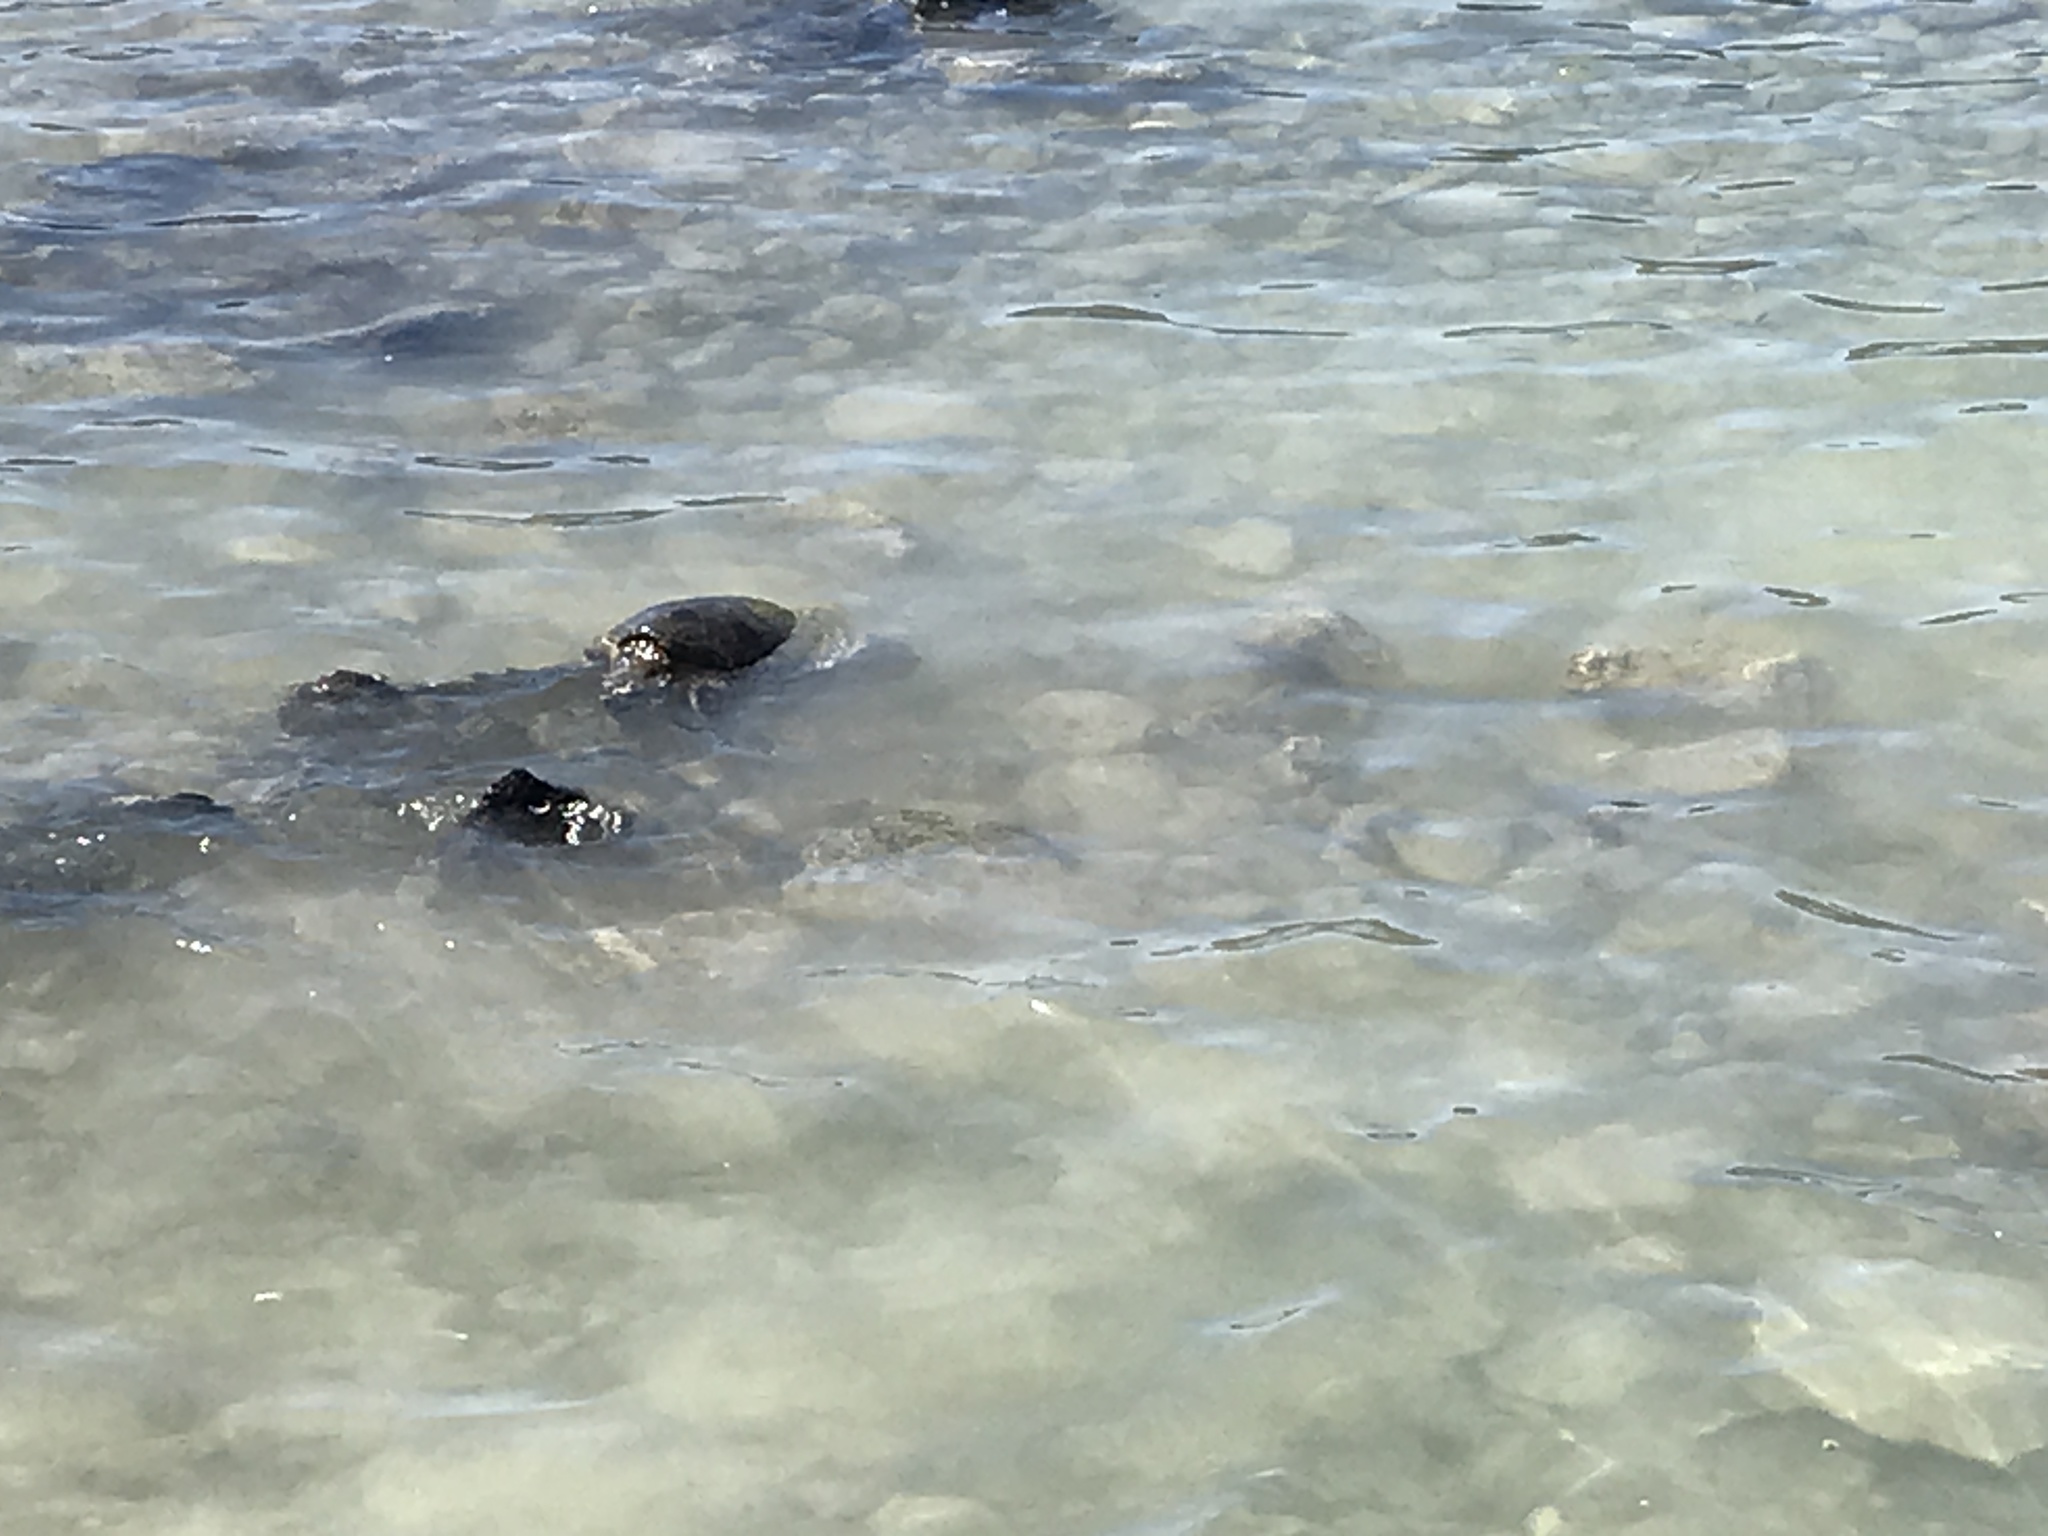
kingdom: Animalia
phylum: Chordata
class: Testudines
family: Cheloniidae
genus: Chelonia
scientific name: Chelonia mydas
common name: Green turtle
